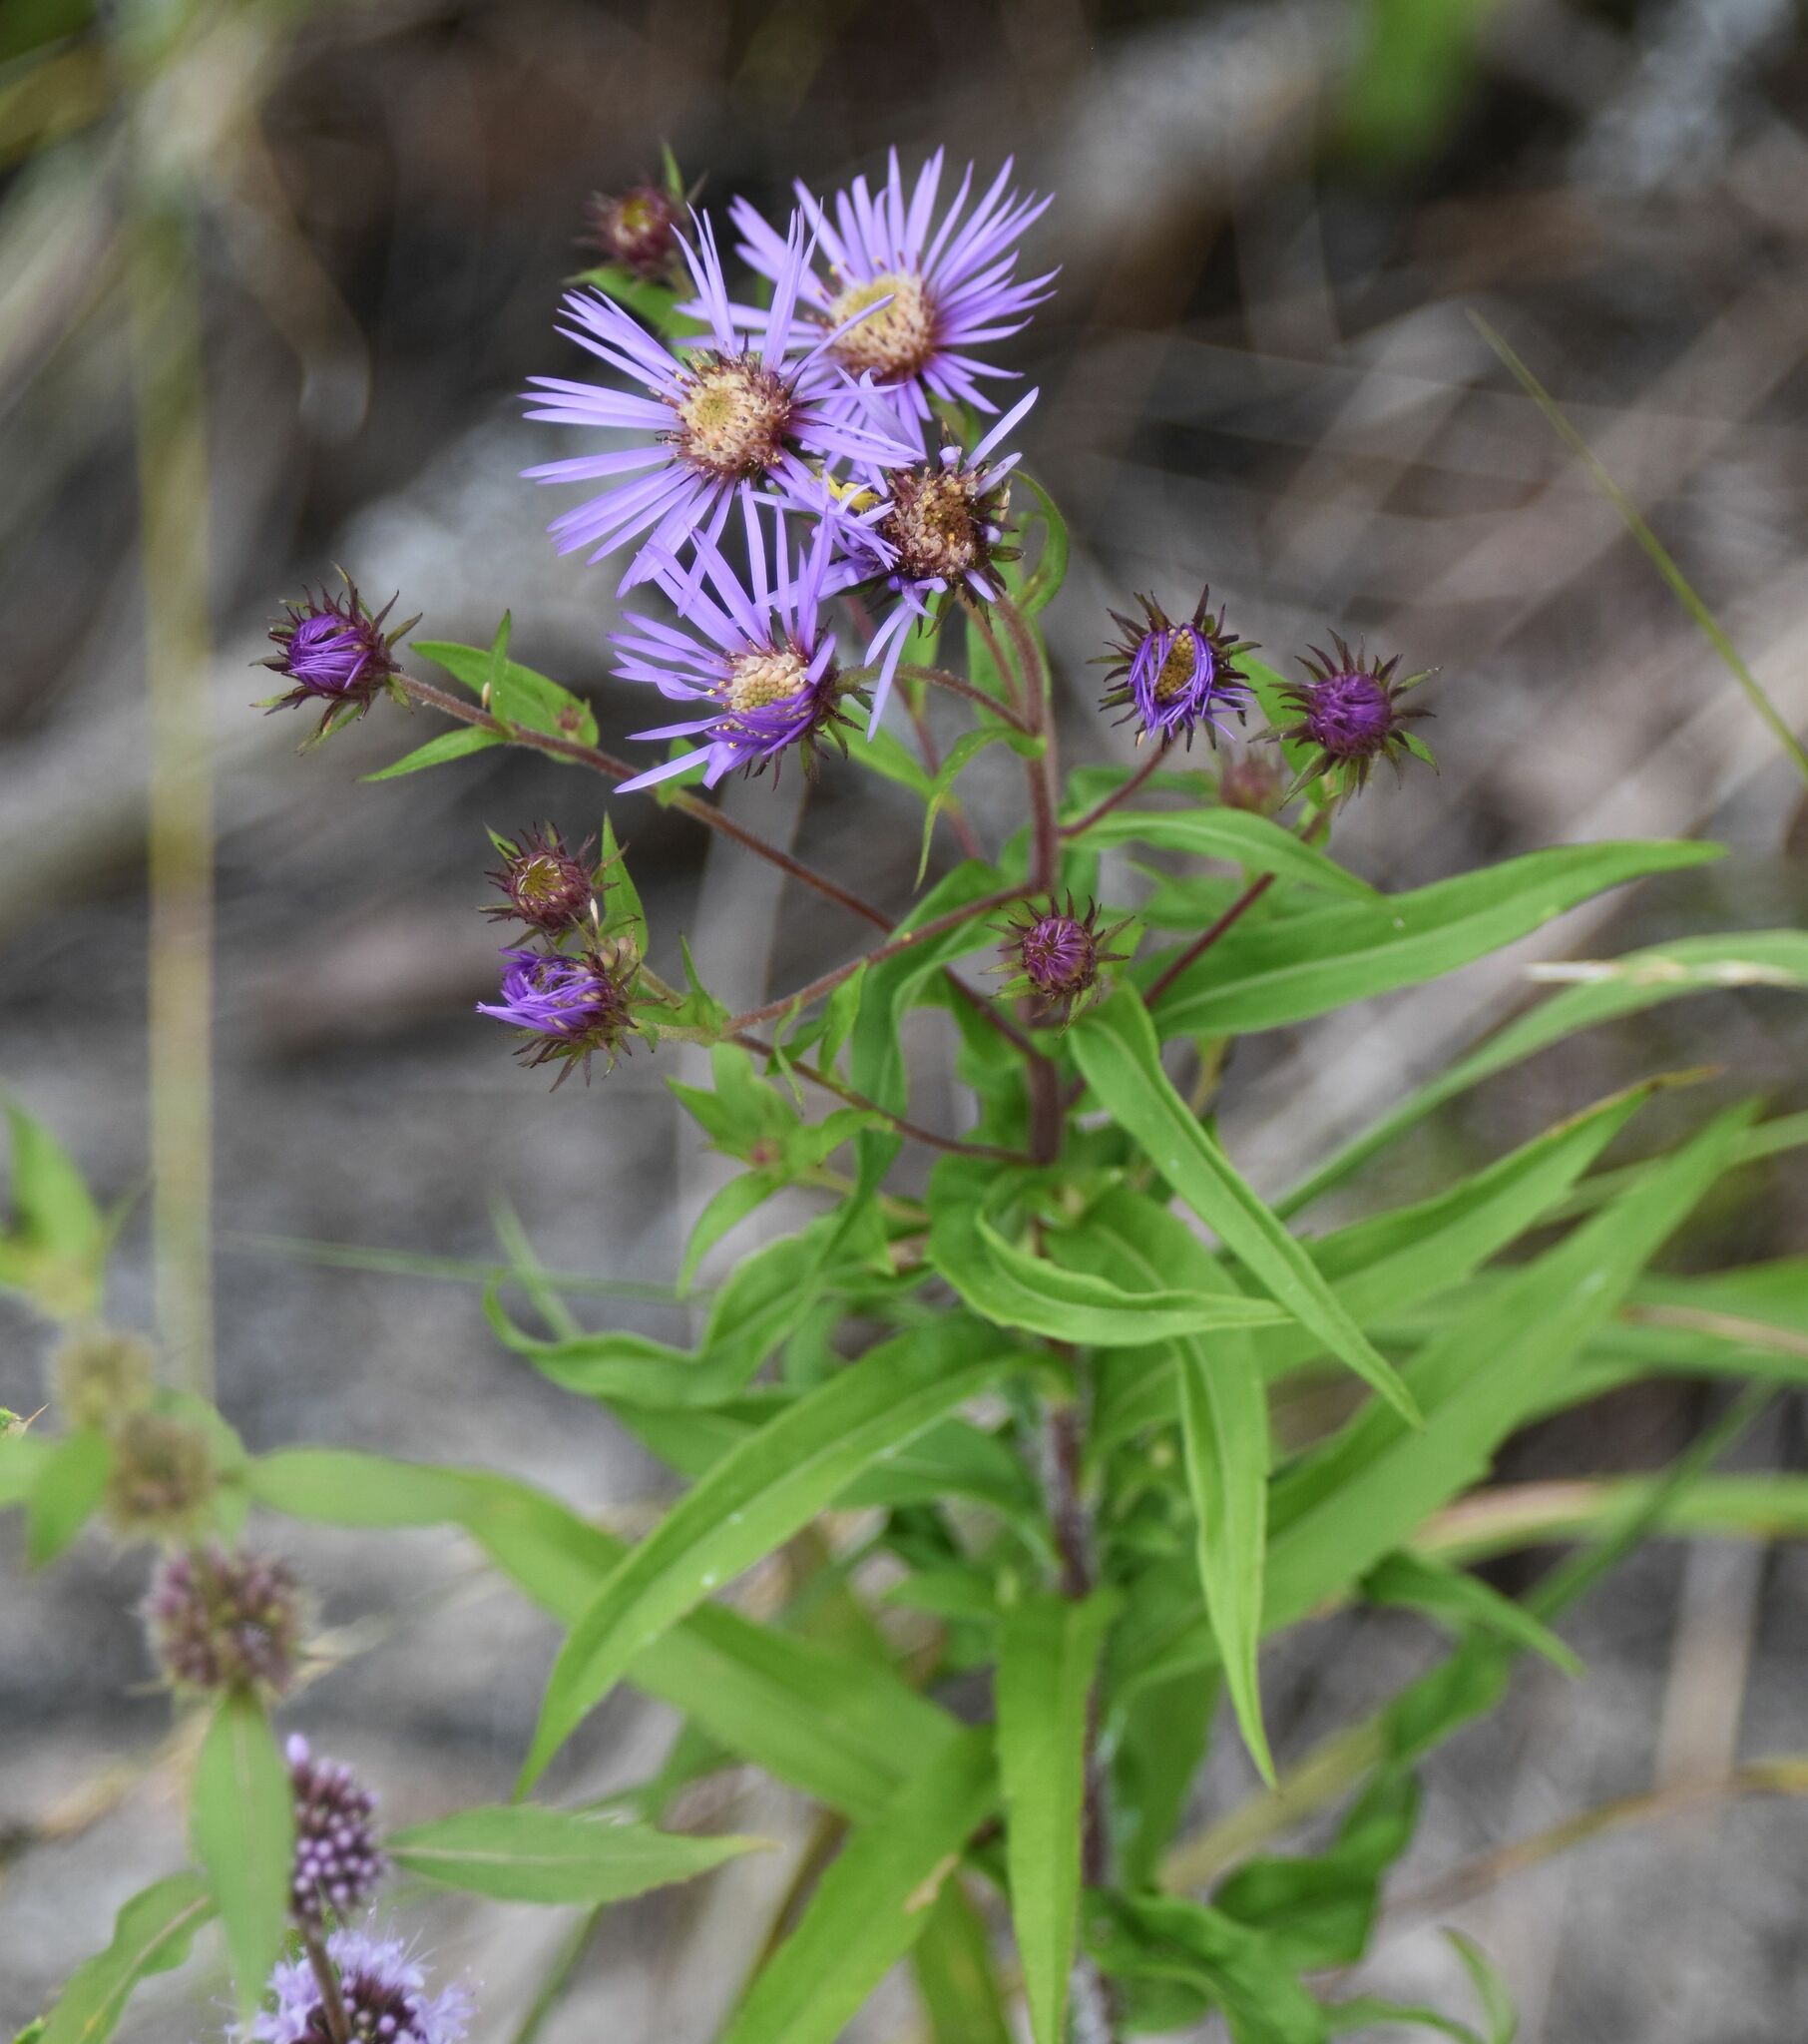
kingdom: Plantae
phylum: Tracheophyta
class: Magnoliopsida
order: Asterales
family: Asteraceae
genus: Canadanthus
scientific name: Canadanthus modestus
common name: Great northern aster
